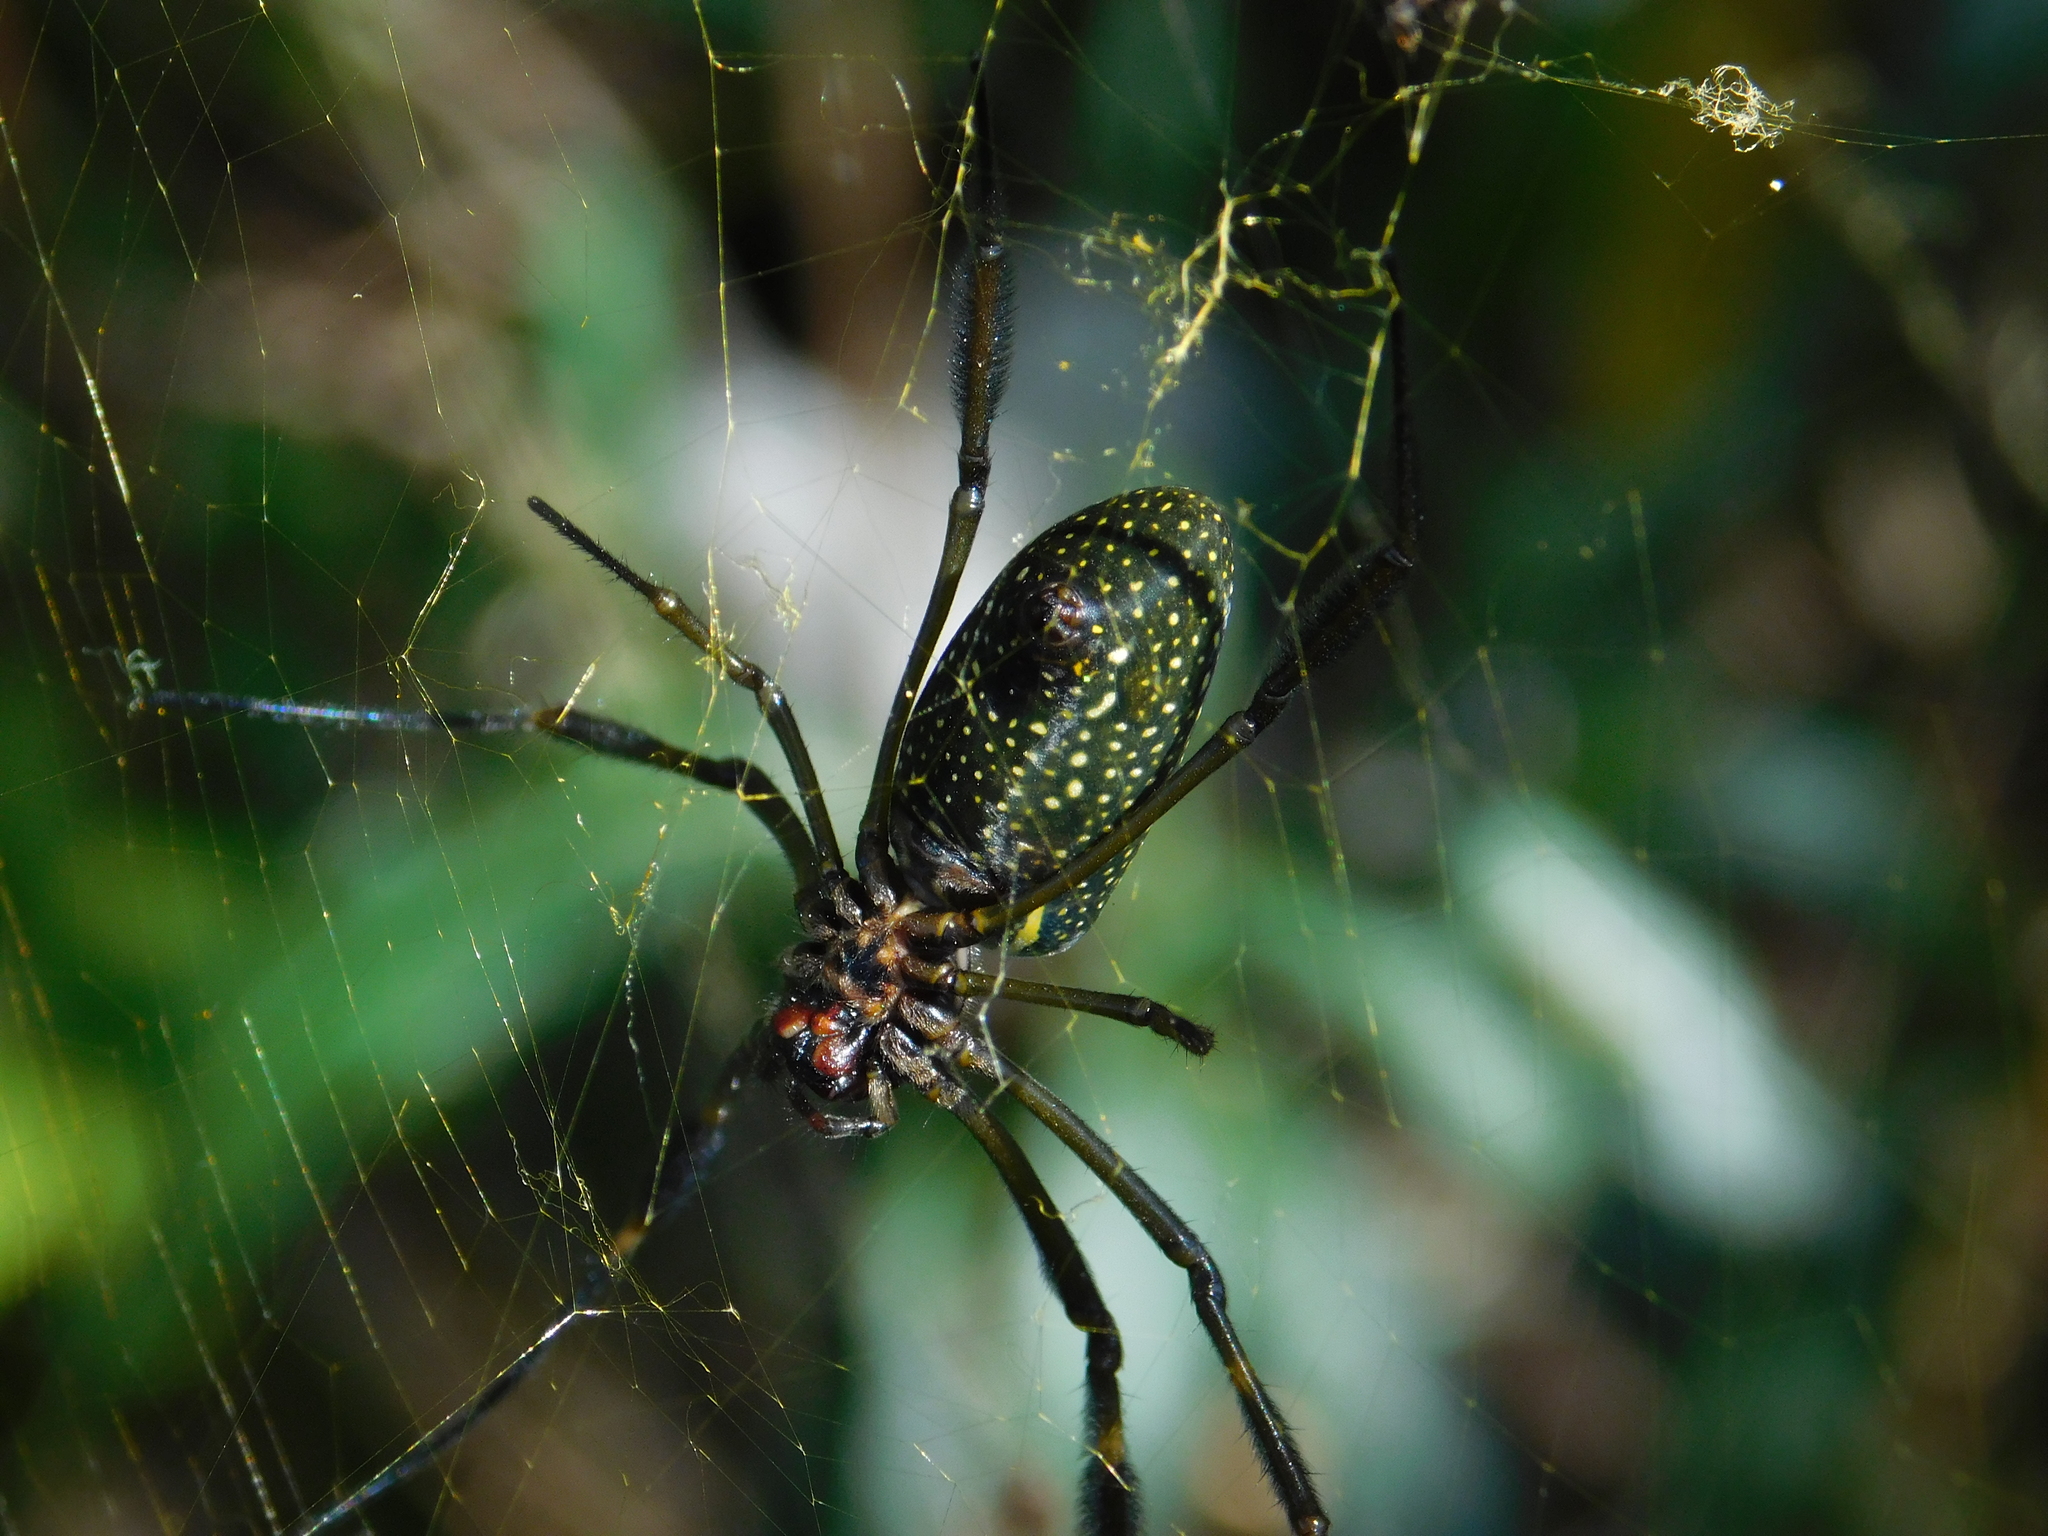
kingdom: Animalia
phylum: Arthropoda
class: Arachnida
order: Araneae
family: Araneidae
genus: Trichonephila
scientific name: Trichonephila clavipes
